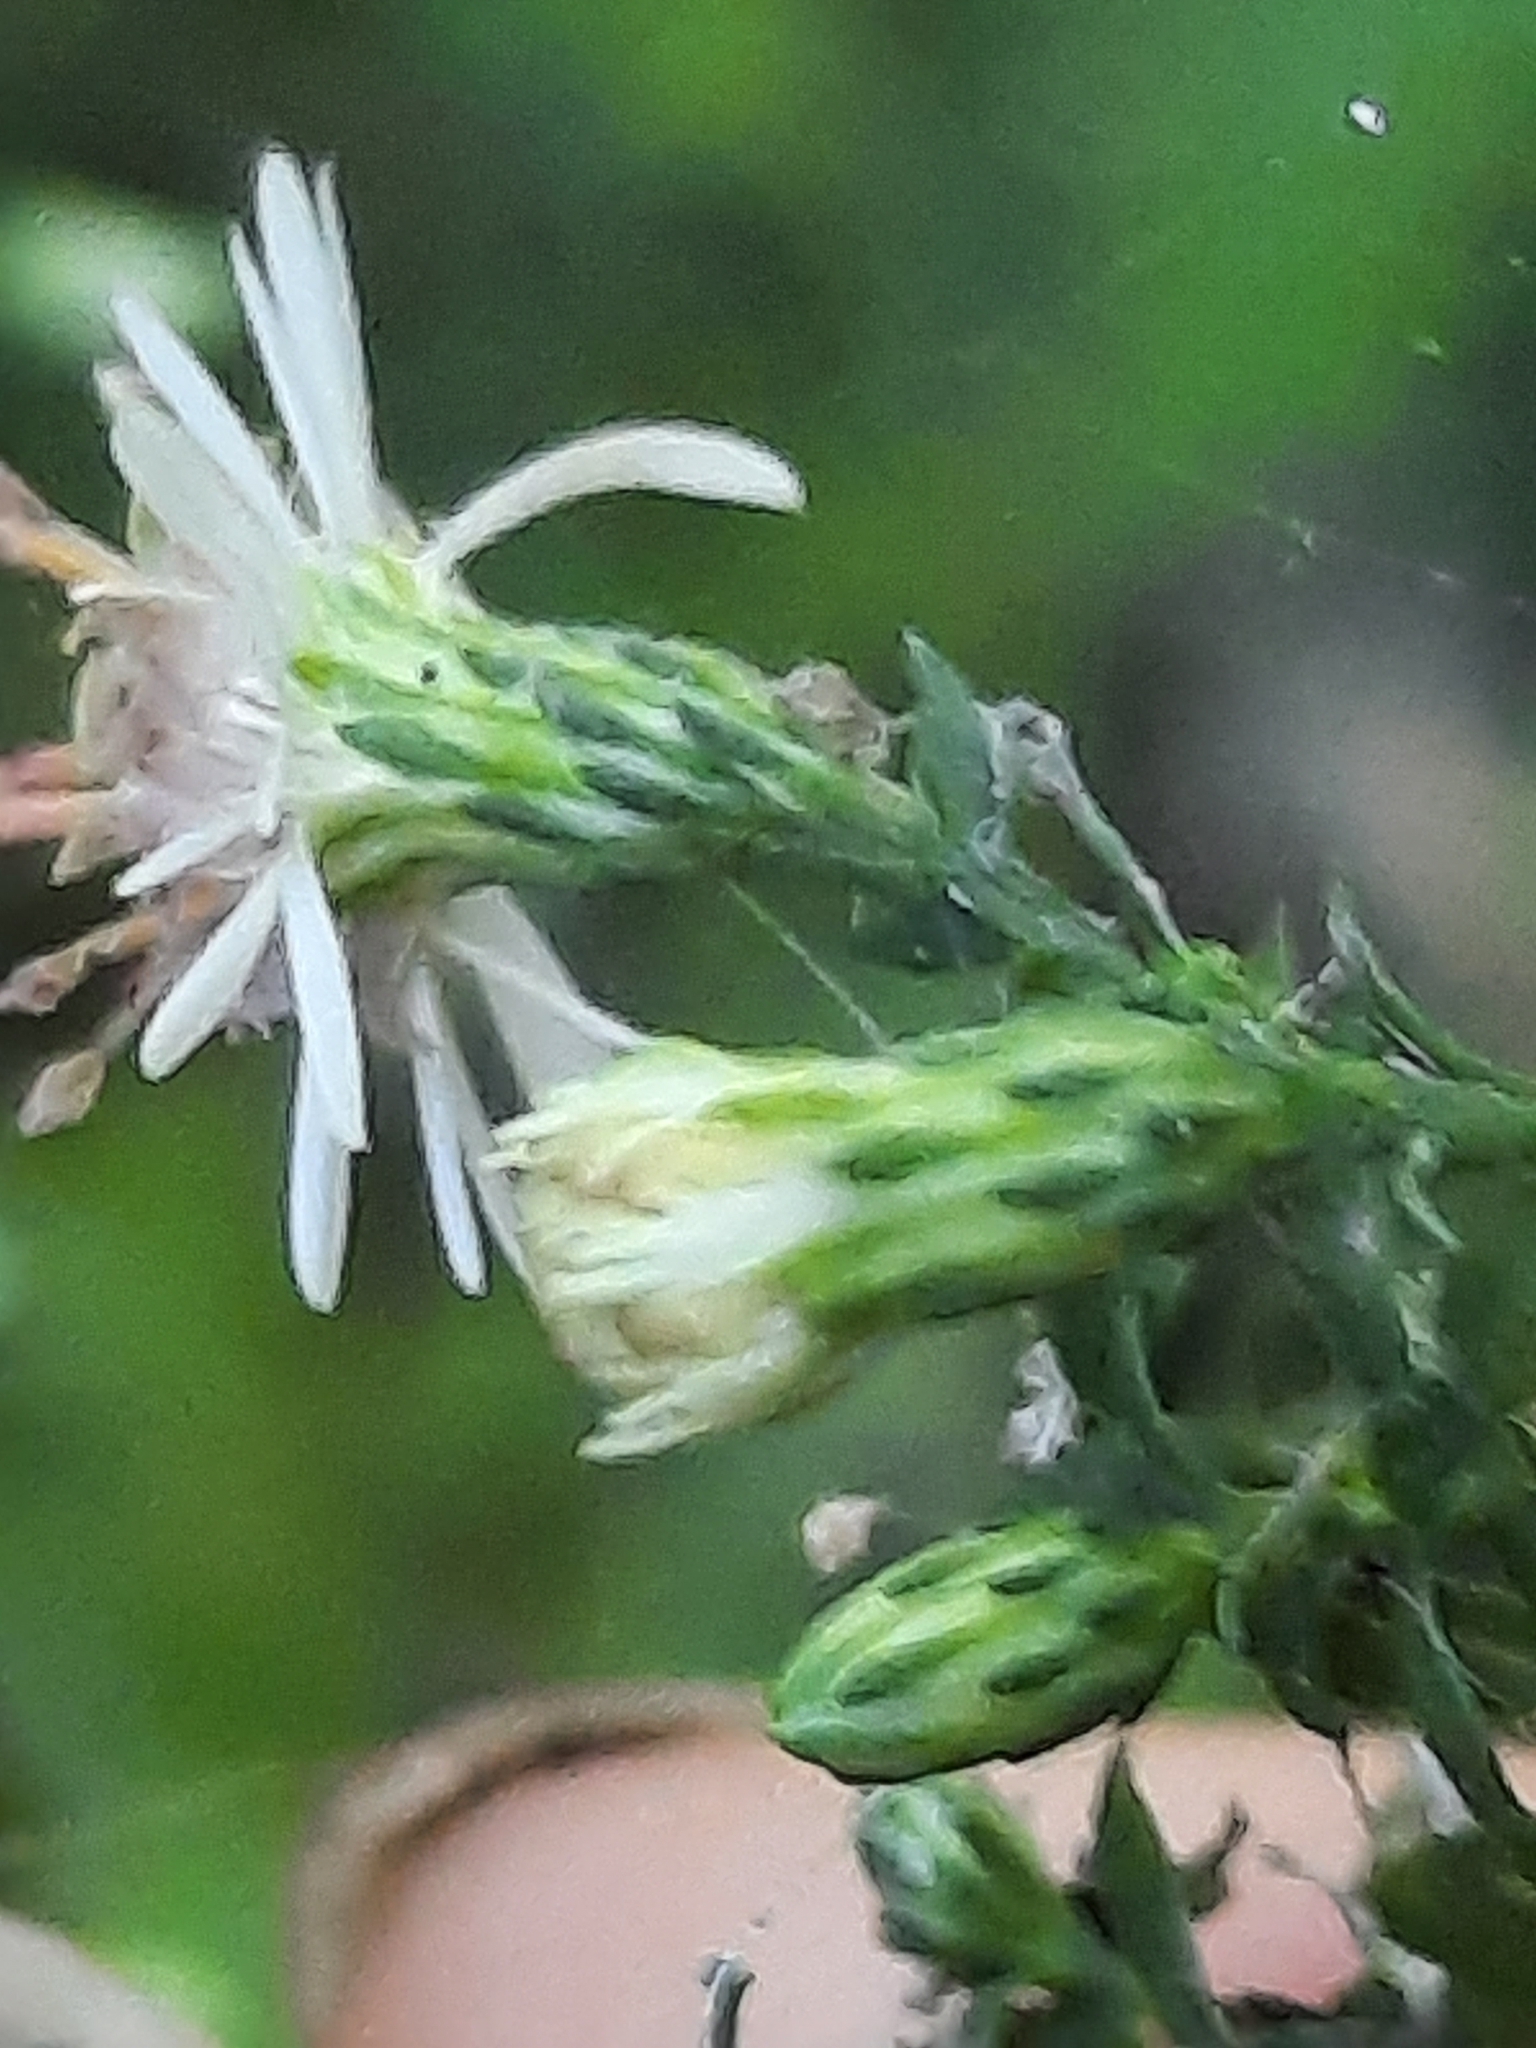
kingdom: Plantae
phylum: Tracheophyta
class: Magnoliopsida
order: Asterales
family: Asteraceae
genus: Symphyotrichum
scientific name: Symphyotrichum lateriflorum
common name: Calico aster
